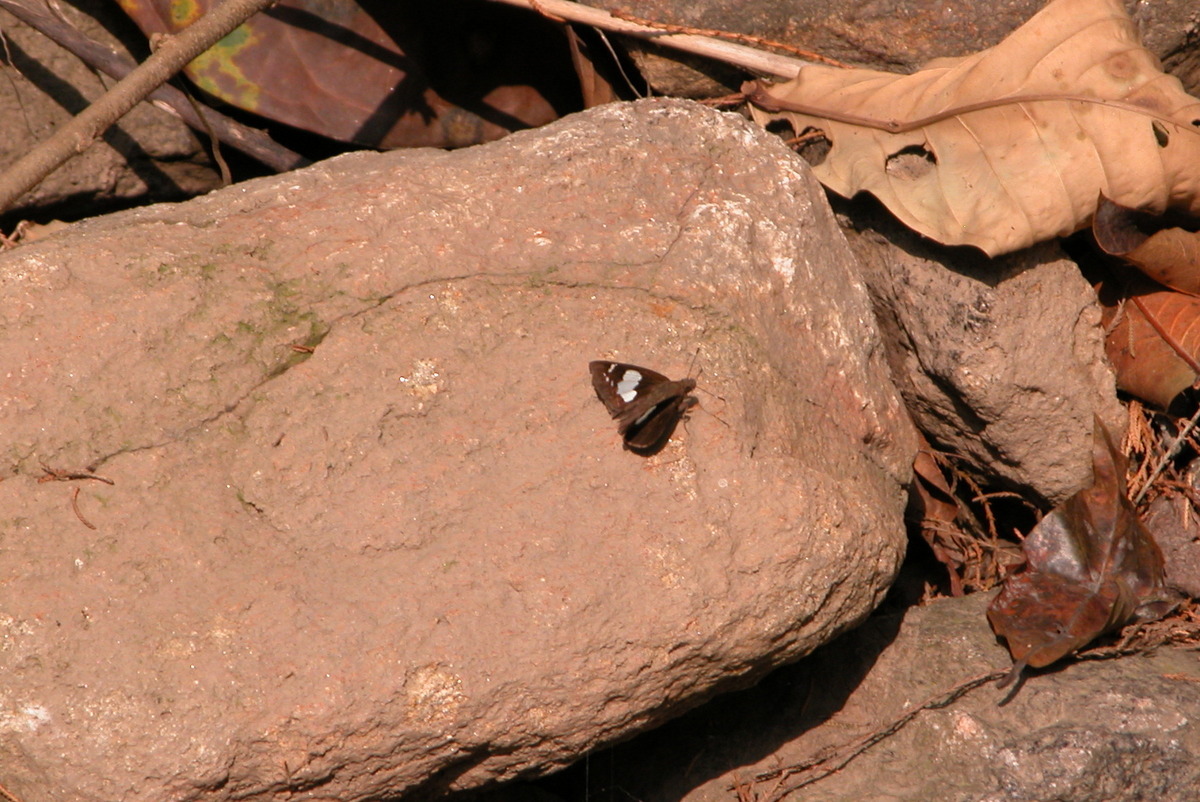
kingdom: Animalia
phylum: Arthropoda
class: Insecta
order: Lepidoptera
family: Hesperiidae
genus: Notocrypta
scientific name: Notocrypta curvifascia
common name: Restricted demon
